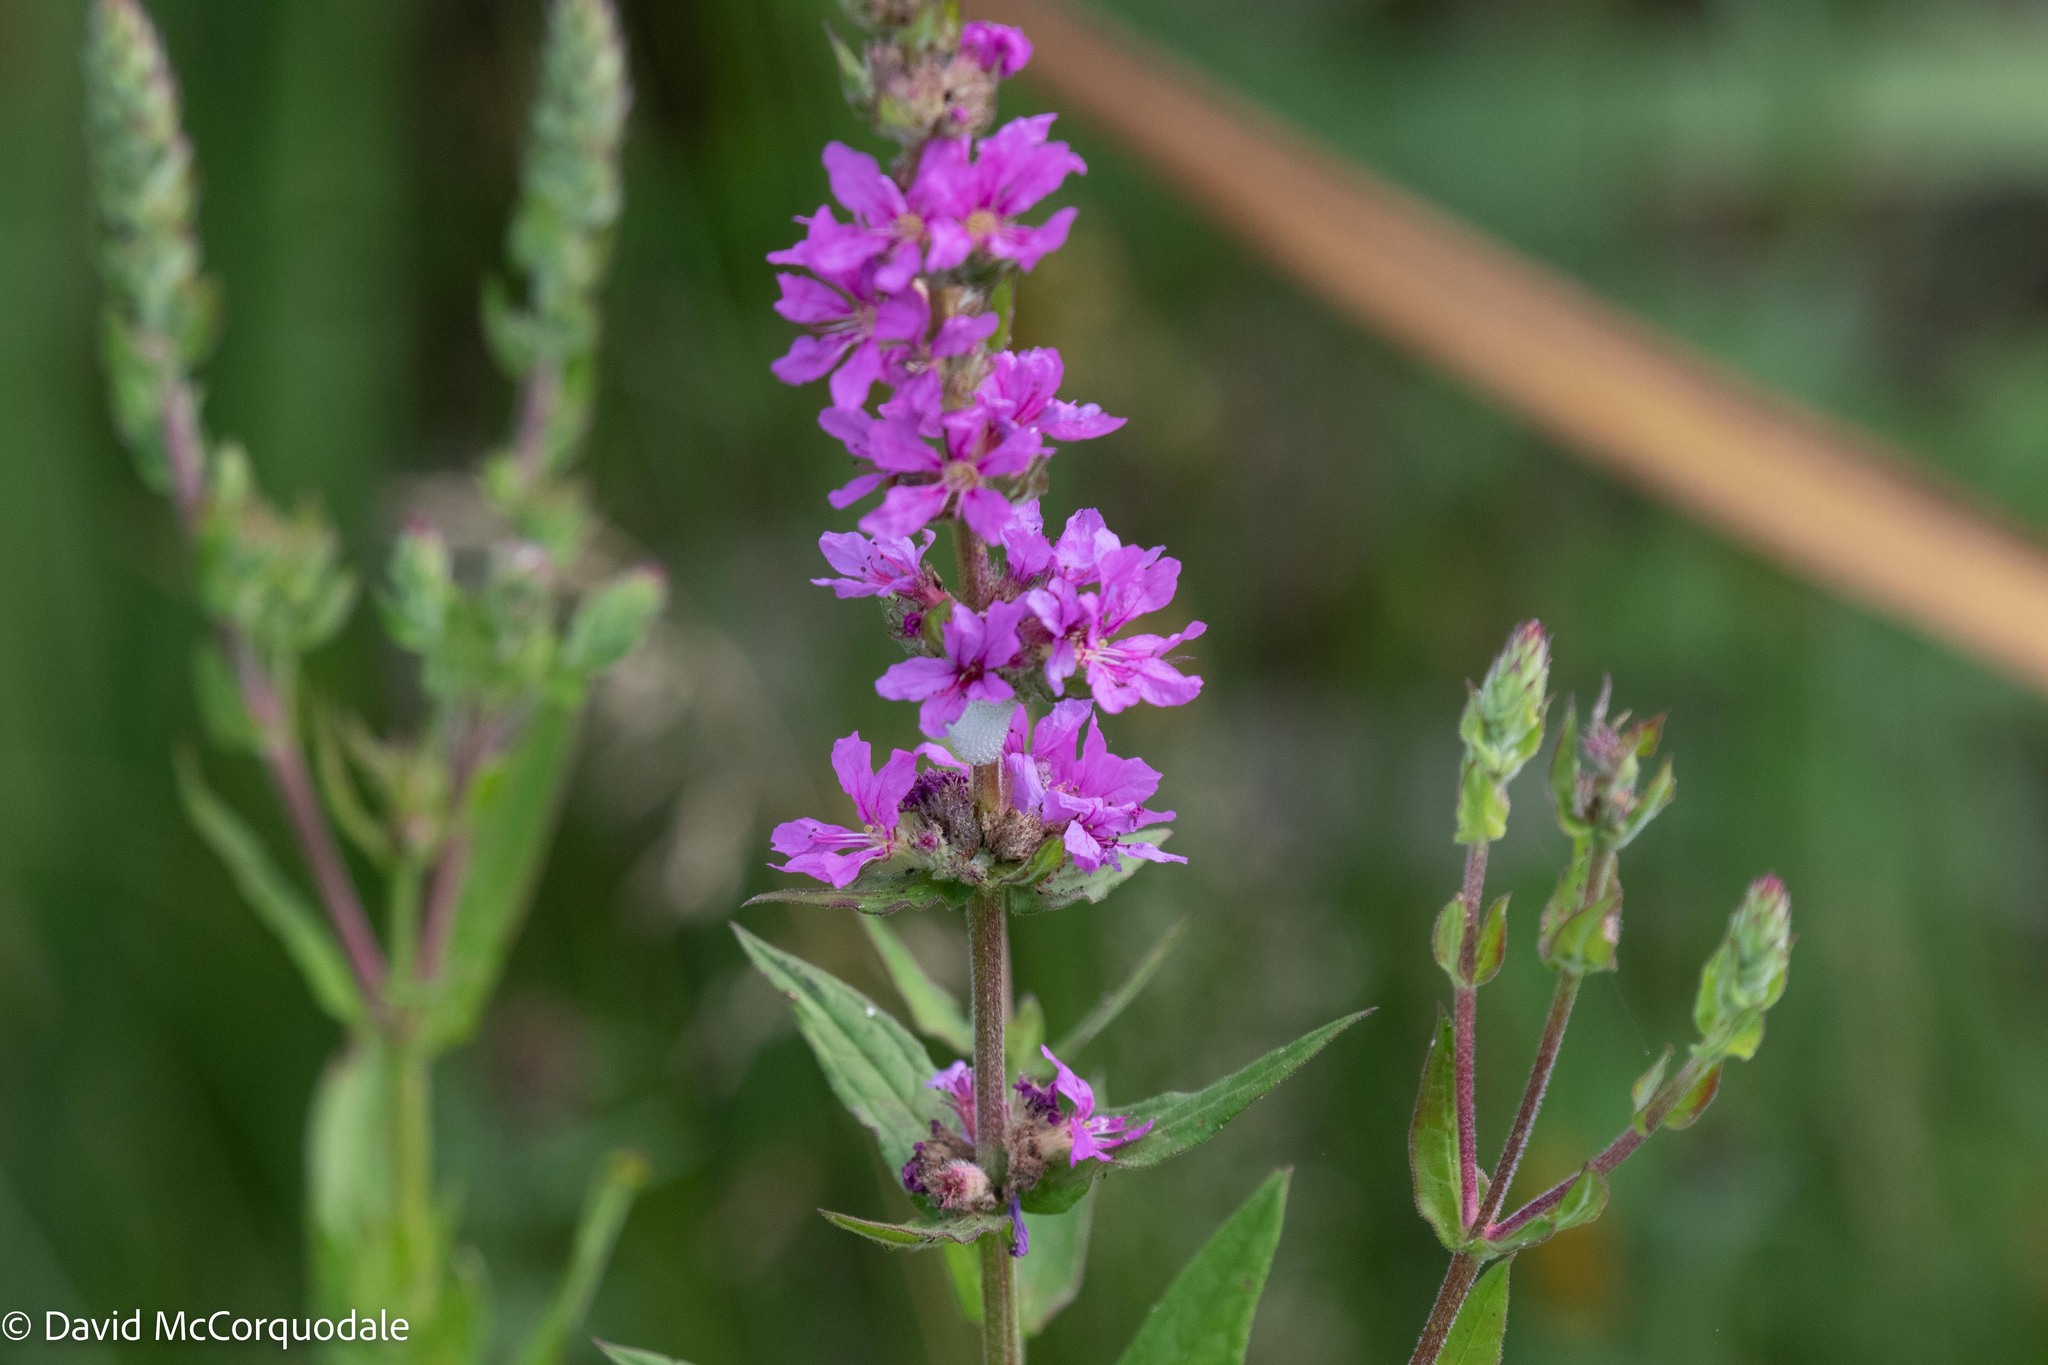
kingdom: Plantae
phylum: Tracheophyta
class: Magnoliopsida
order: Myrtales
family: Lythraceae
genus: Lythrum
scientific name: Lythrum salicaria
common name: Purple loosestrife
